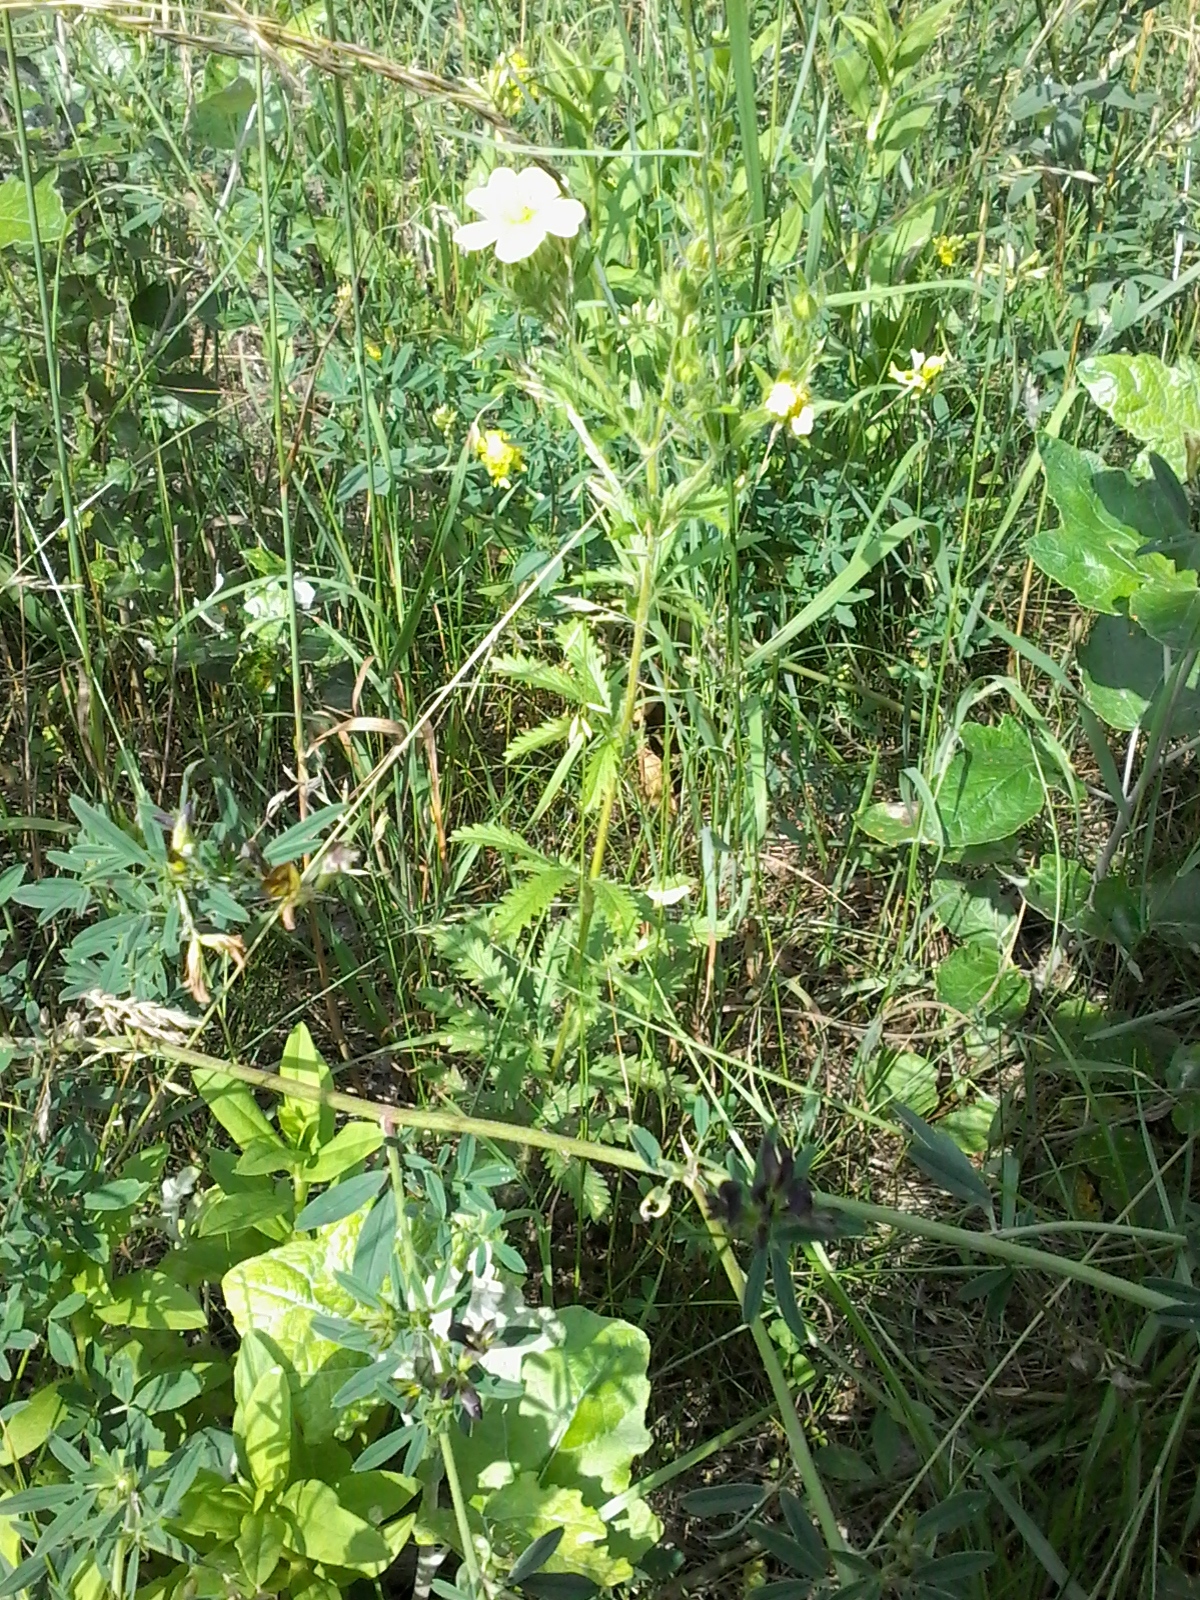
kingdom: Plantae
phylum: Tracheophyta
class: Magnoliopsida
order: Rosales
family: Rosaceae
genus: Potentilla
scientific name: Potentilla recta
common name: Sulphur cinquefoil
